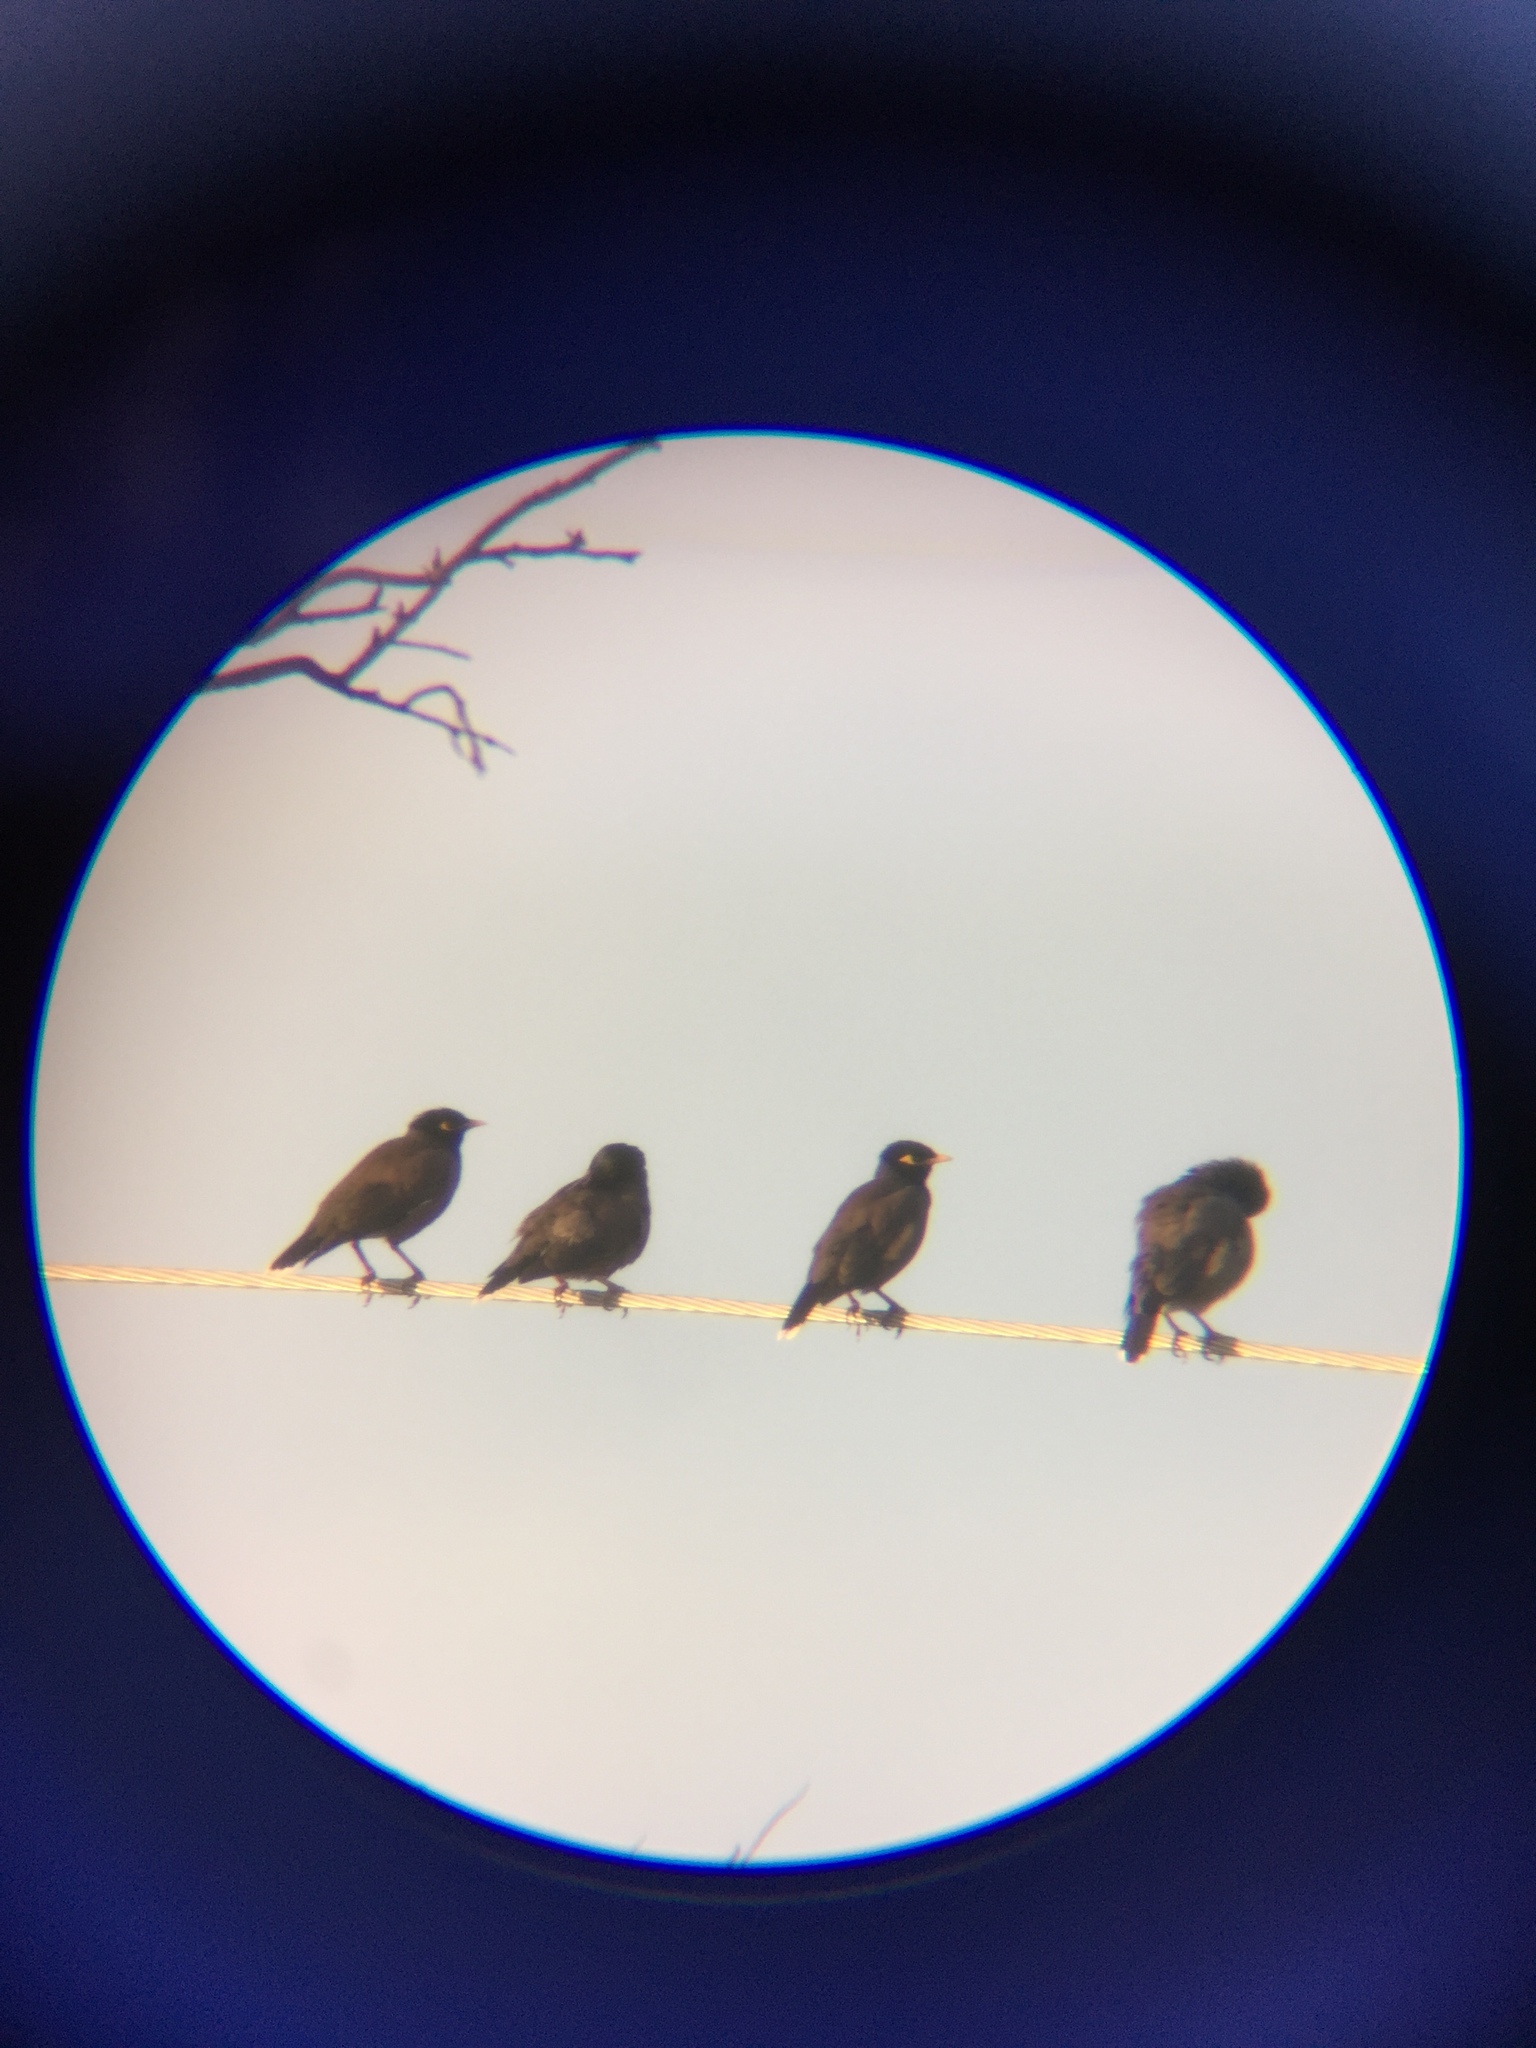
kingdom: Animalia
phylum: Chordata
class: Aves
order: Passeriformes
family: Sturnidae
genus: Acridotheres
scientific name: Acridotheres tristis
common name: Common myna
